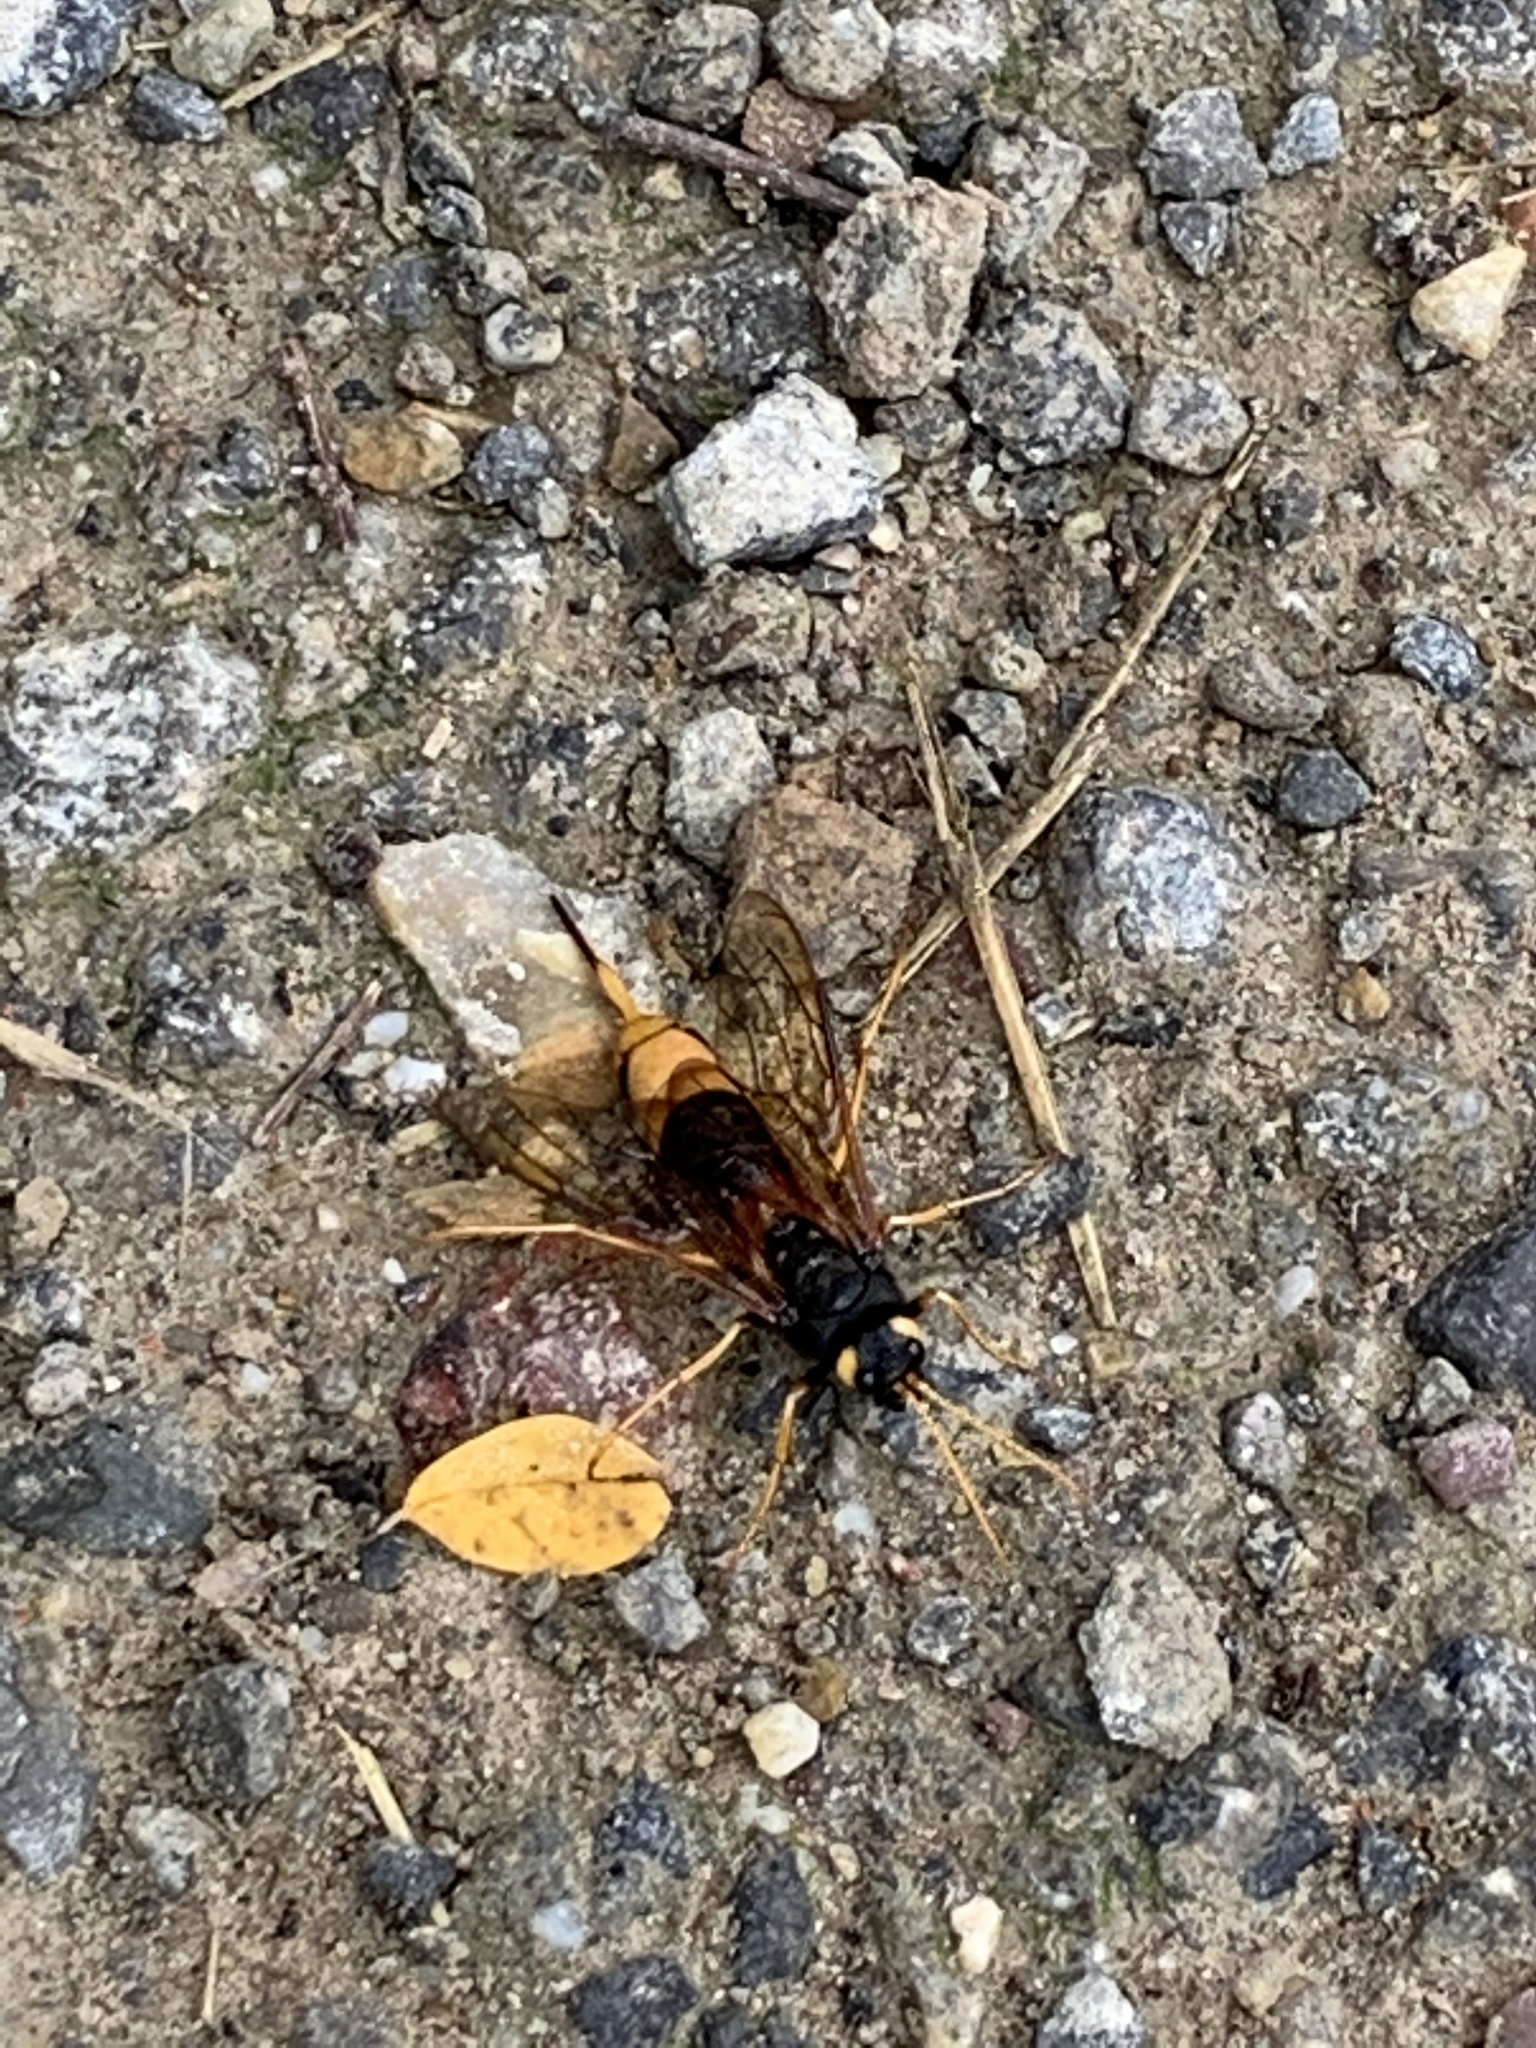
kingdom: Animalia
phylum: Arthropoda
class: Insecta
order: Hymenoptera
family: Siricidae
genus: Urocerus
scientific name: Urocerus gigas
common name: Giant woodwasp
